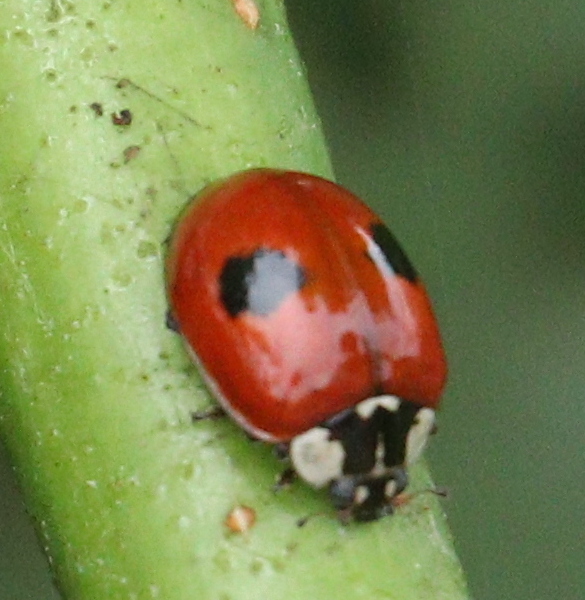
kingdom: Animalia
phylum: Arthropoda
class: Insecta
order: Coleoptera
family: Coccinellidae
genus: Adalia
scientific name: Adalia bipunctata
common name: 2-spot ladybird
